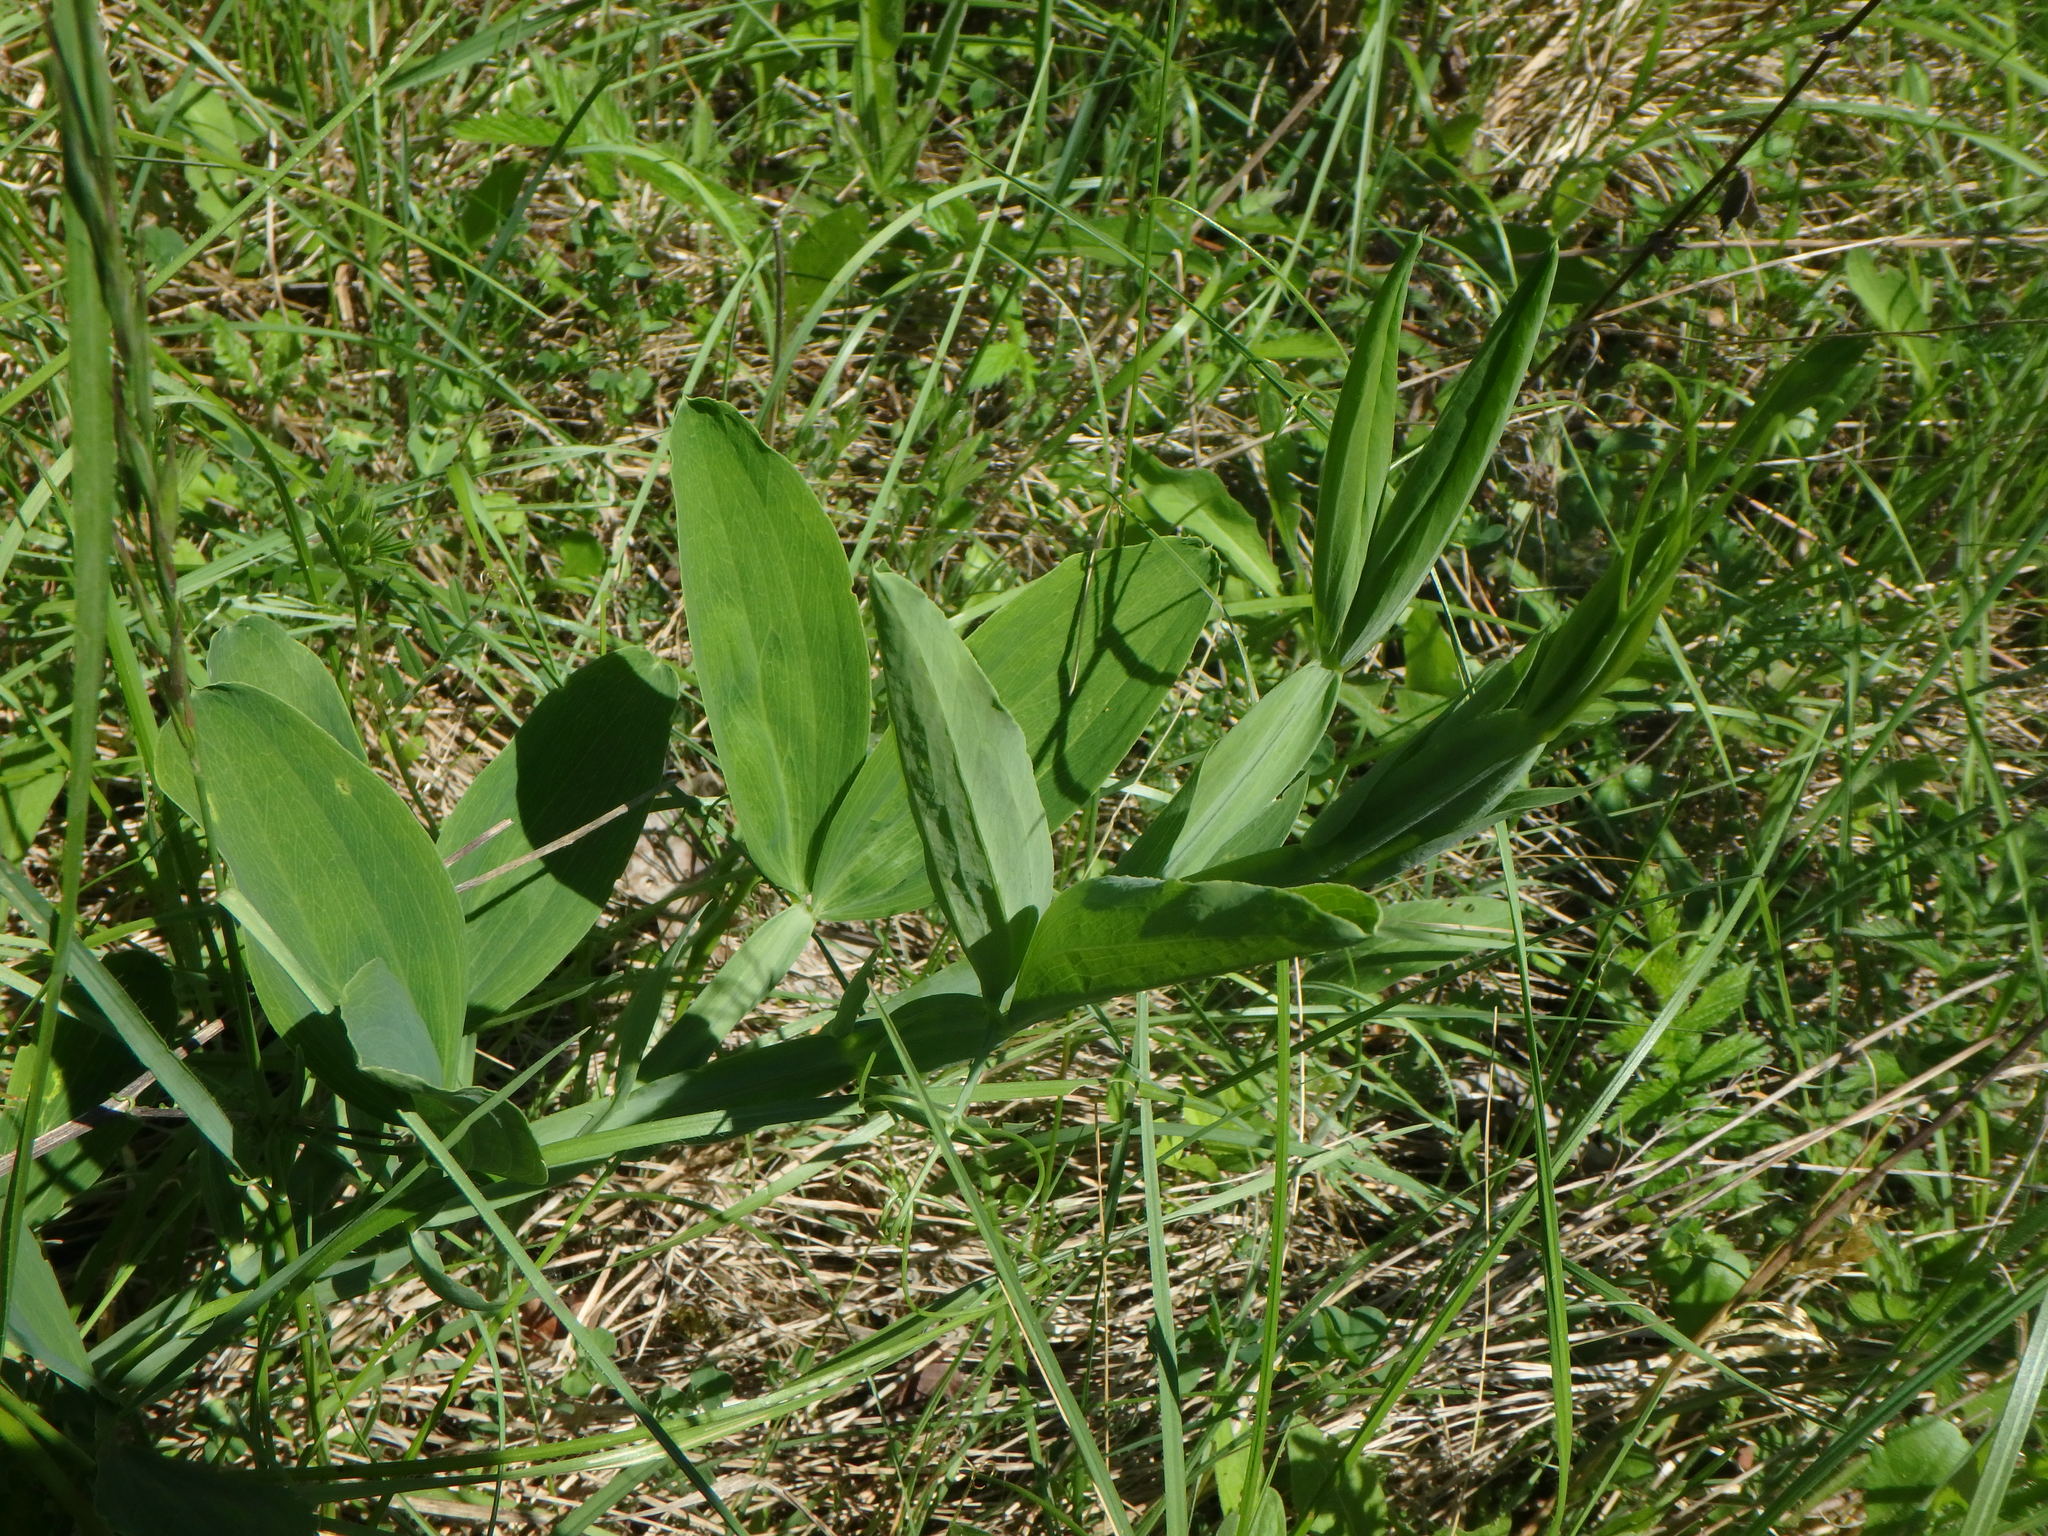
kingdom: Plantae
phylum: Tracheophyta
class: Magnoliopsida
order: Fabales
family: Fabaceae
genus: Lathyrus
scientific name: Lathyrus latifolius
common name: Perennial pea
